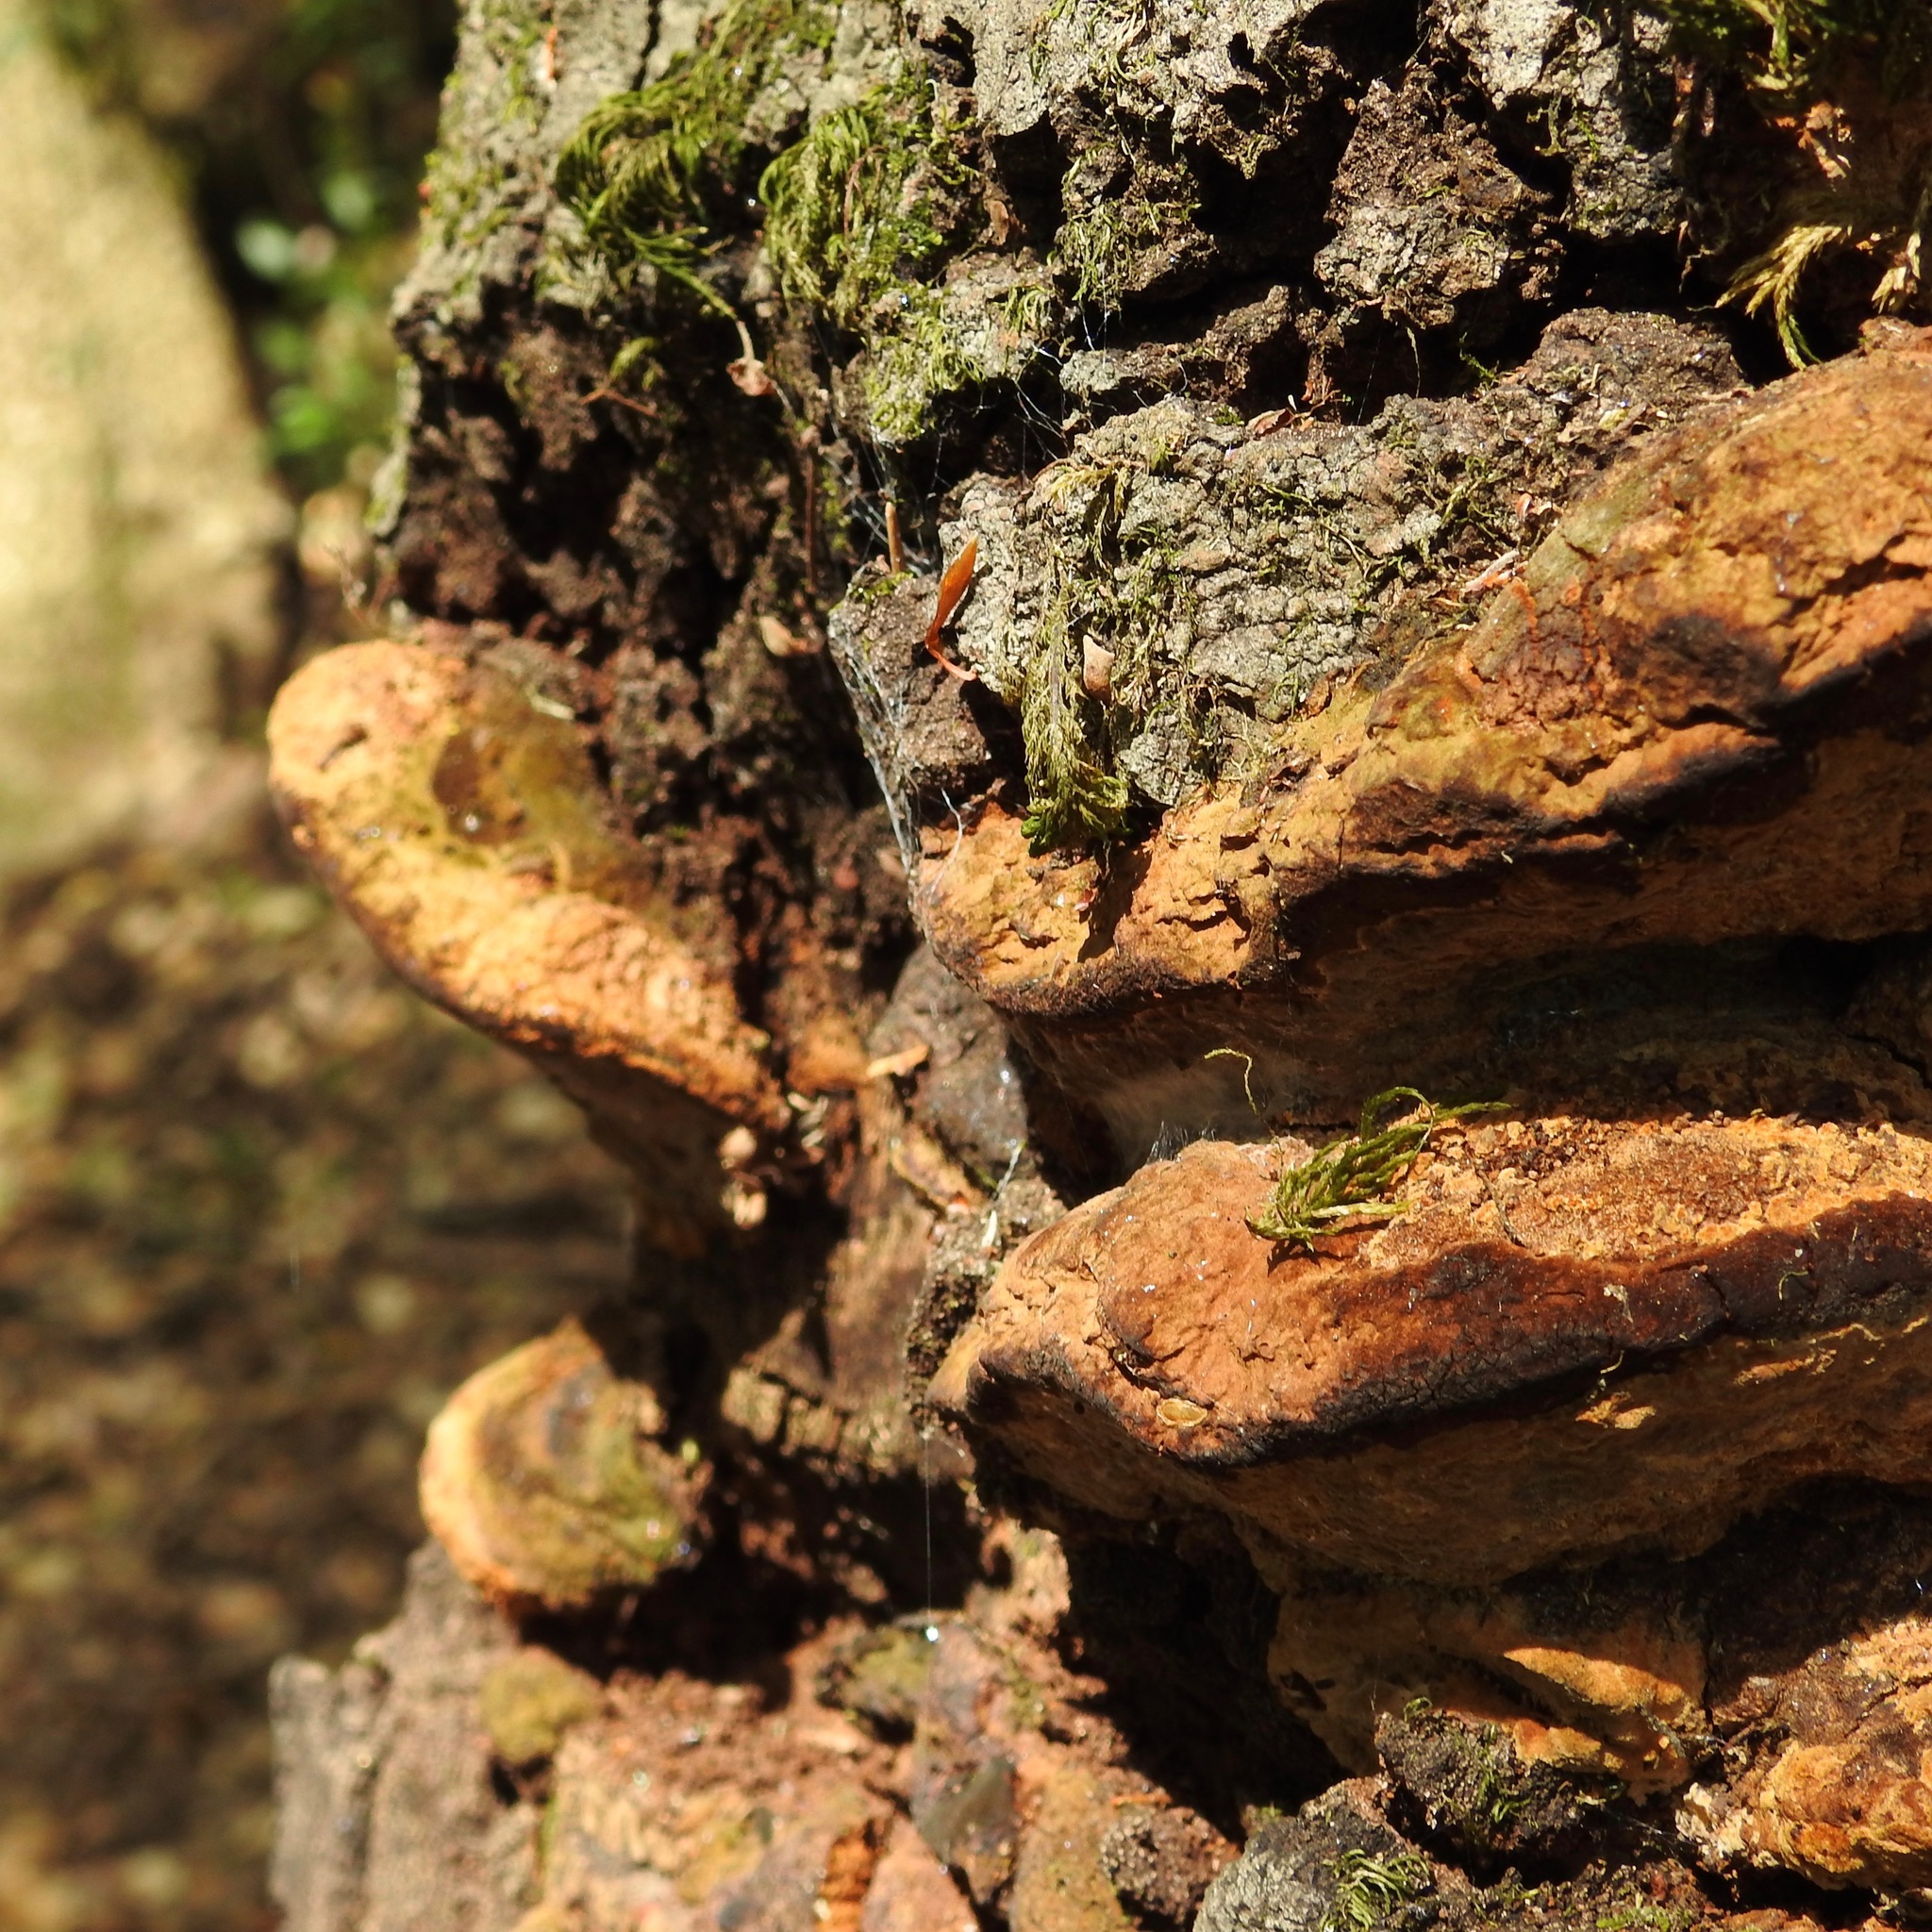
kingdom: Fungi
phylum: Basidiomycota
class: Agaricomycetes
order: Hymenochaetales
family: Hymenochaetaceae
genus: Phellinus
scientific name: Phellinus gilvus
